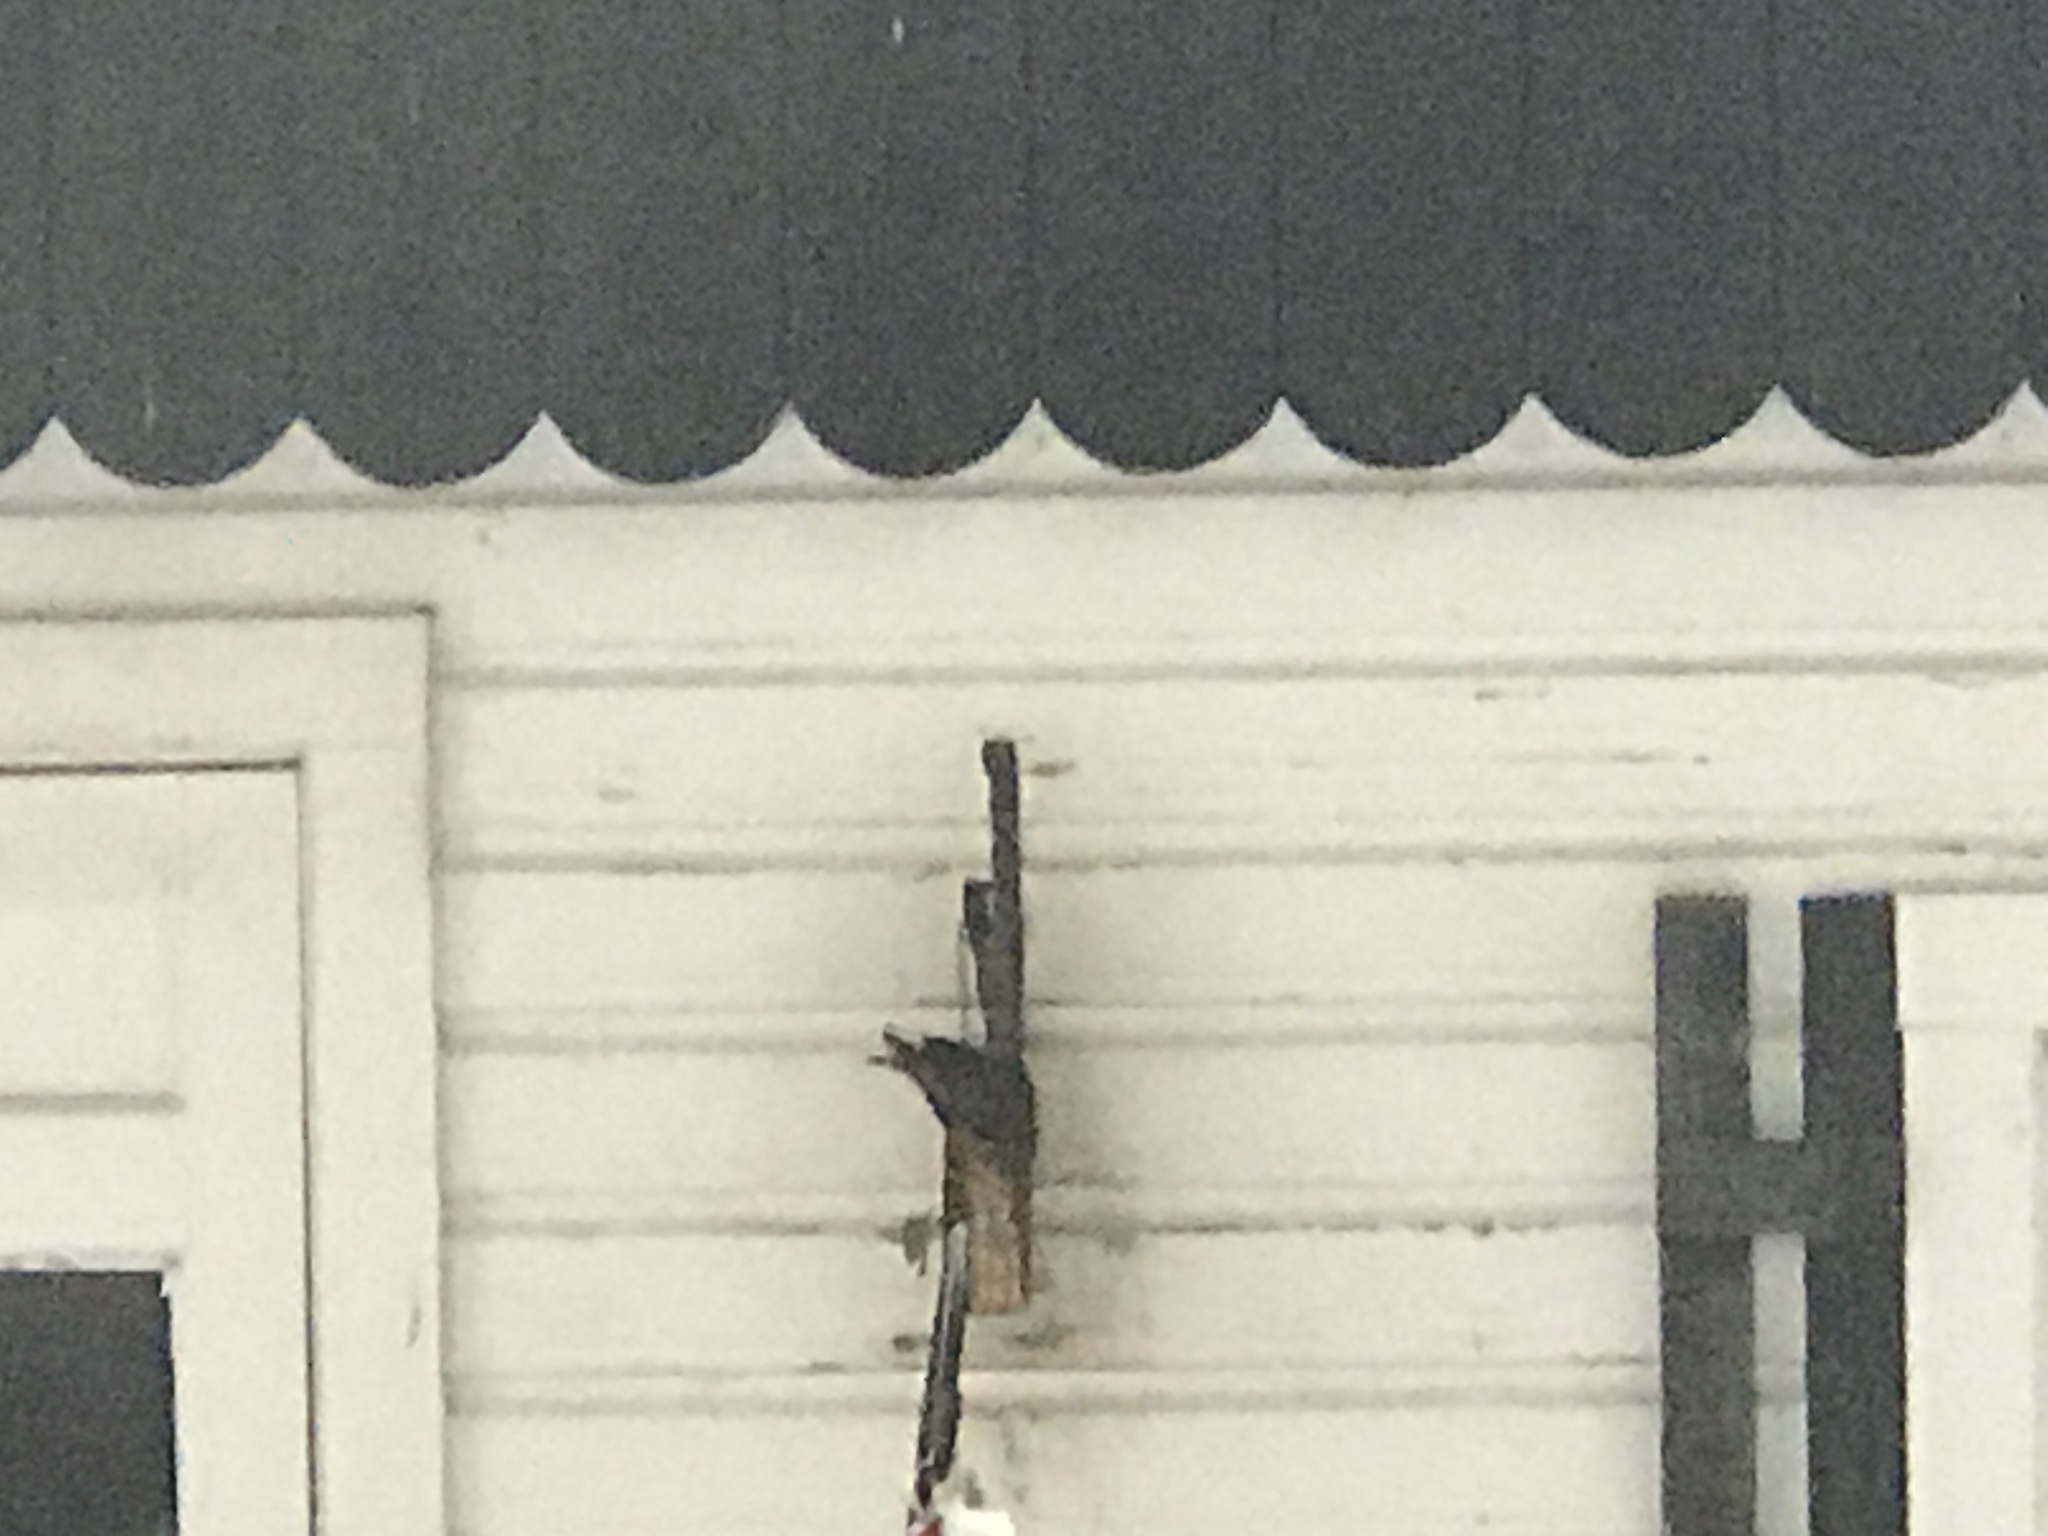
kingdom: Animalia
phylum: Chordata
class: Aves
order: Passeriformes
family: Sturnidae
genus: Sturnus
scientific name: Sturnus vulgaris
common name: Common starling
